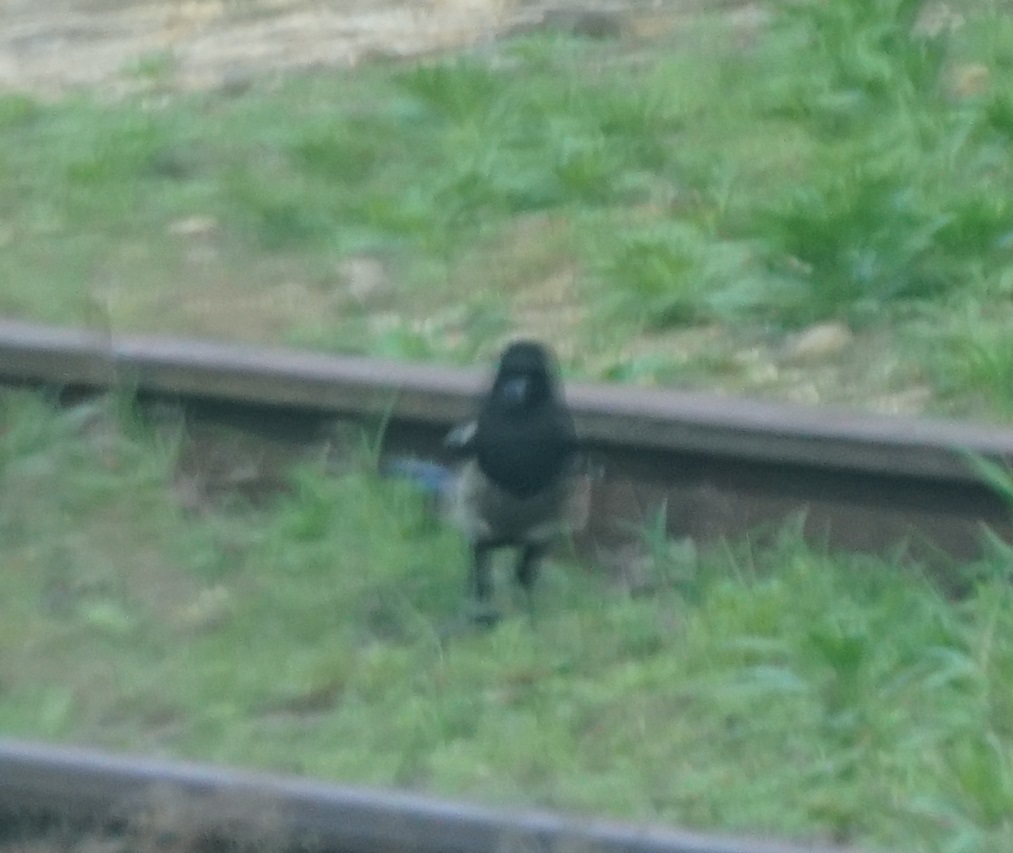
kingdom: Animalia
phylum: Chordata
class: Aves
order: Passeriformes
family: Corvidae
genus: Pica
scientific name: Pica pica
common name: Eurasian magpie
